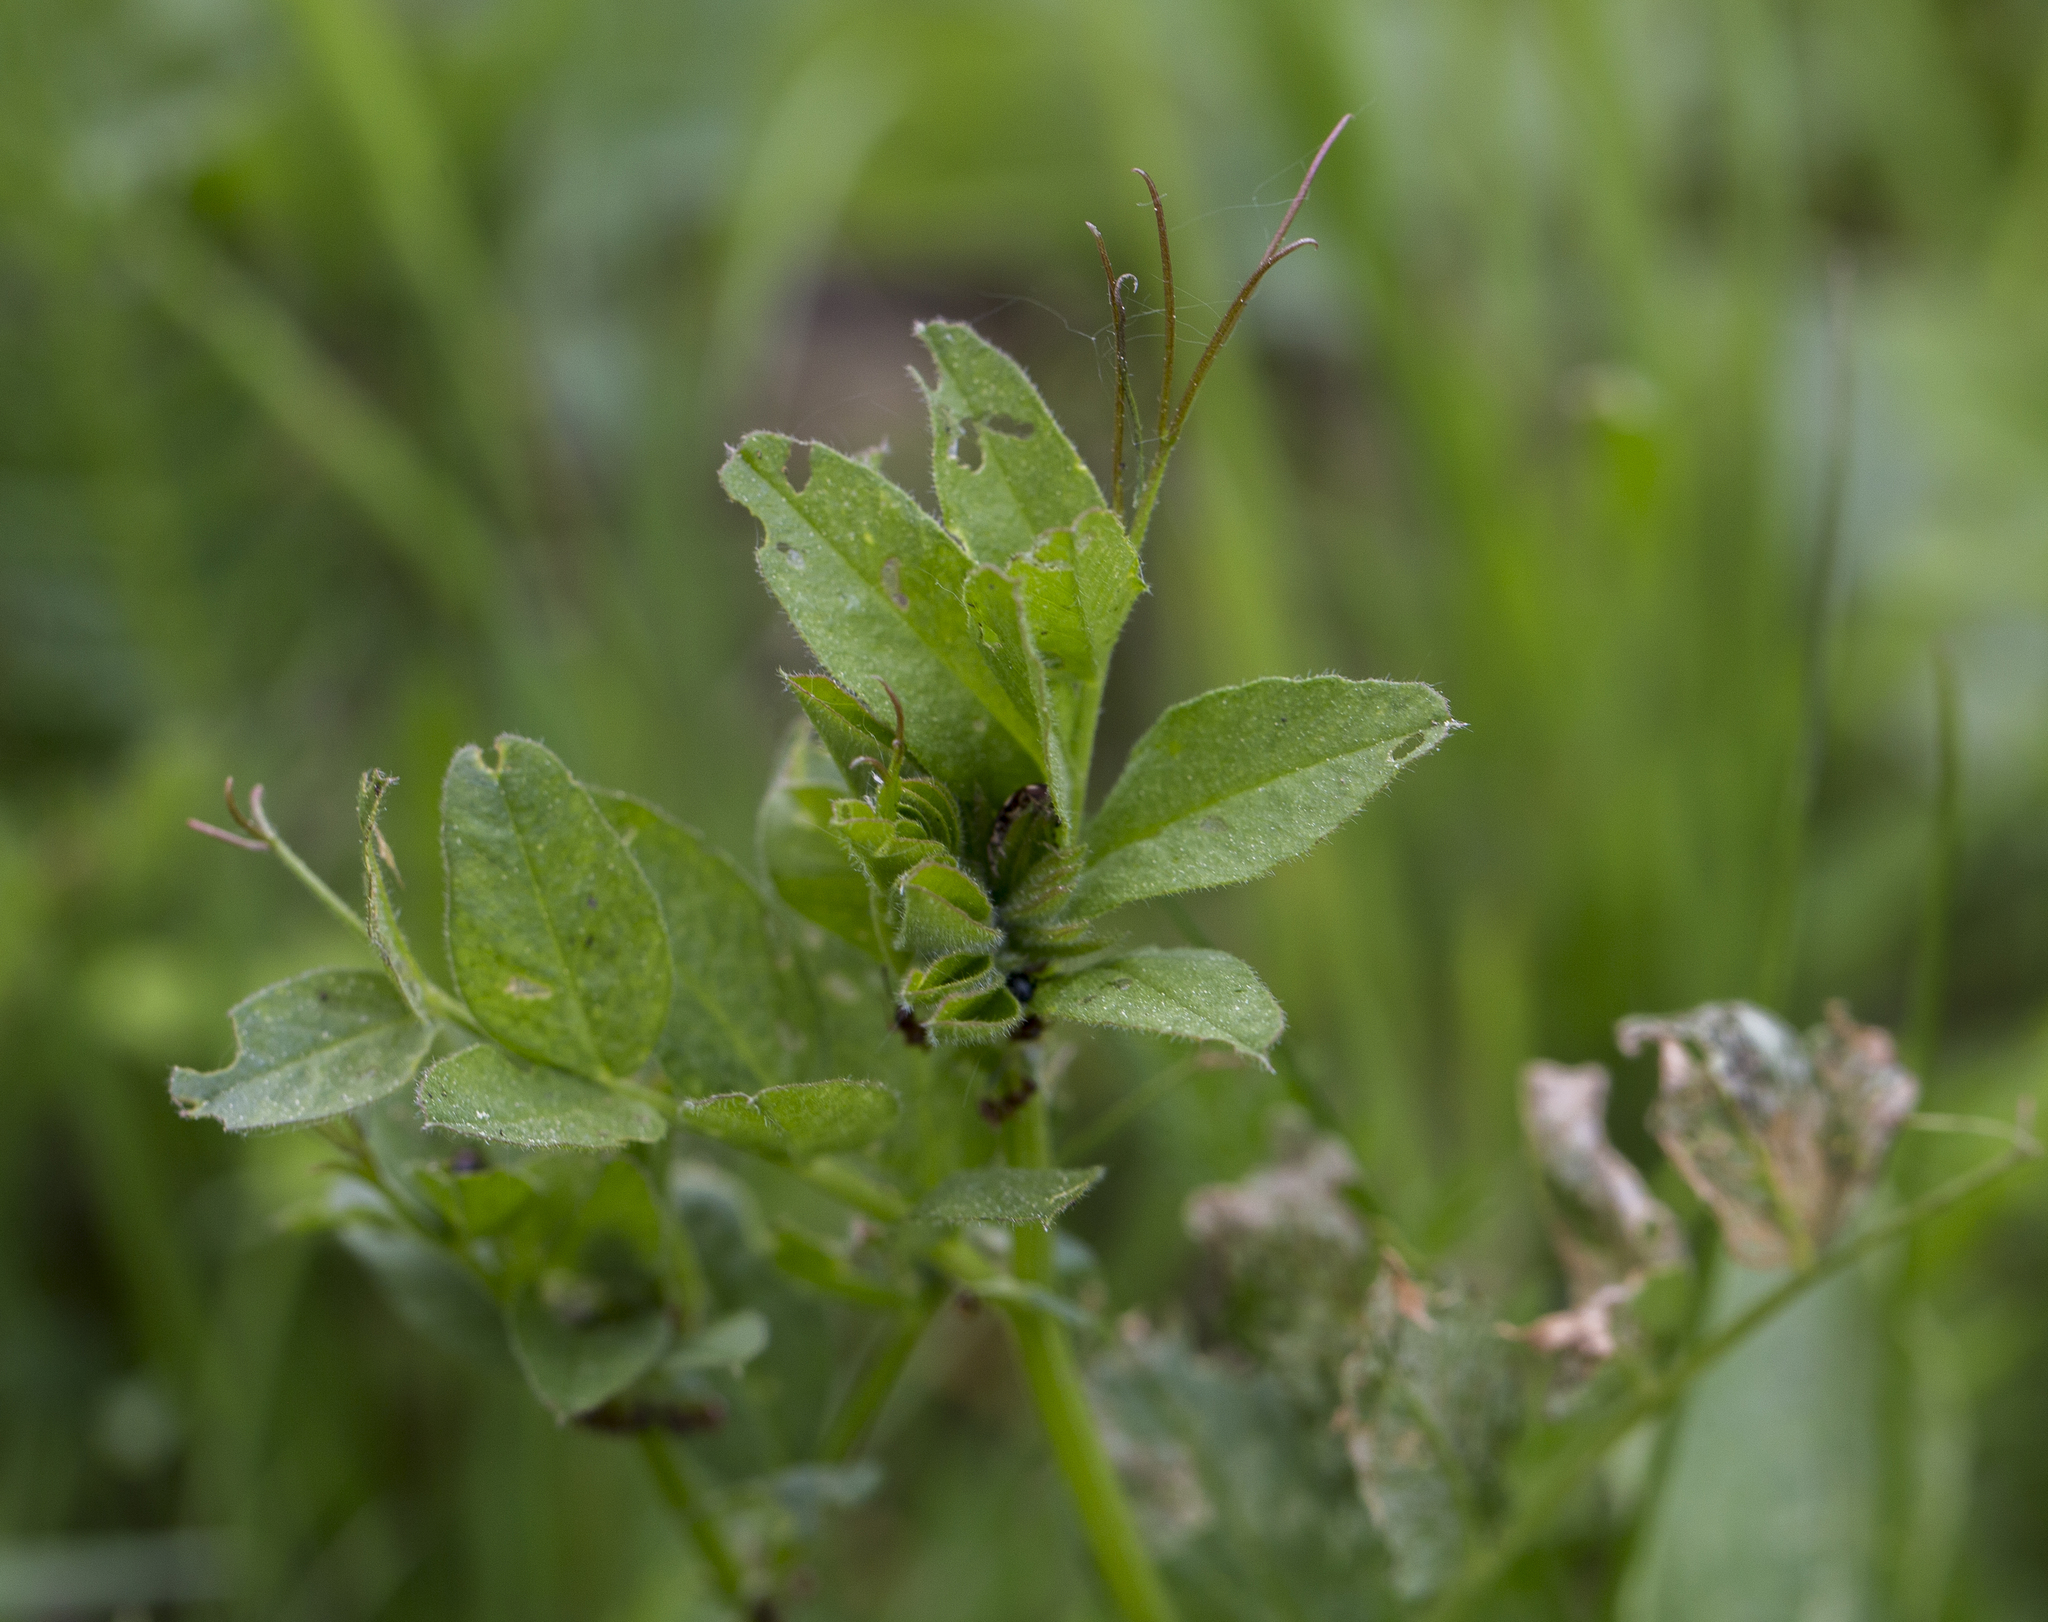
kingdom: Plantae
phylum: Tracheophyta
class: Magnoliopsida
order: Fabales
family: Fabaceae
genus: Vicia
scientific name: Vicia sepium
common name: Bush vetch
